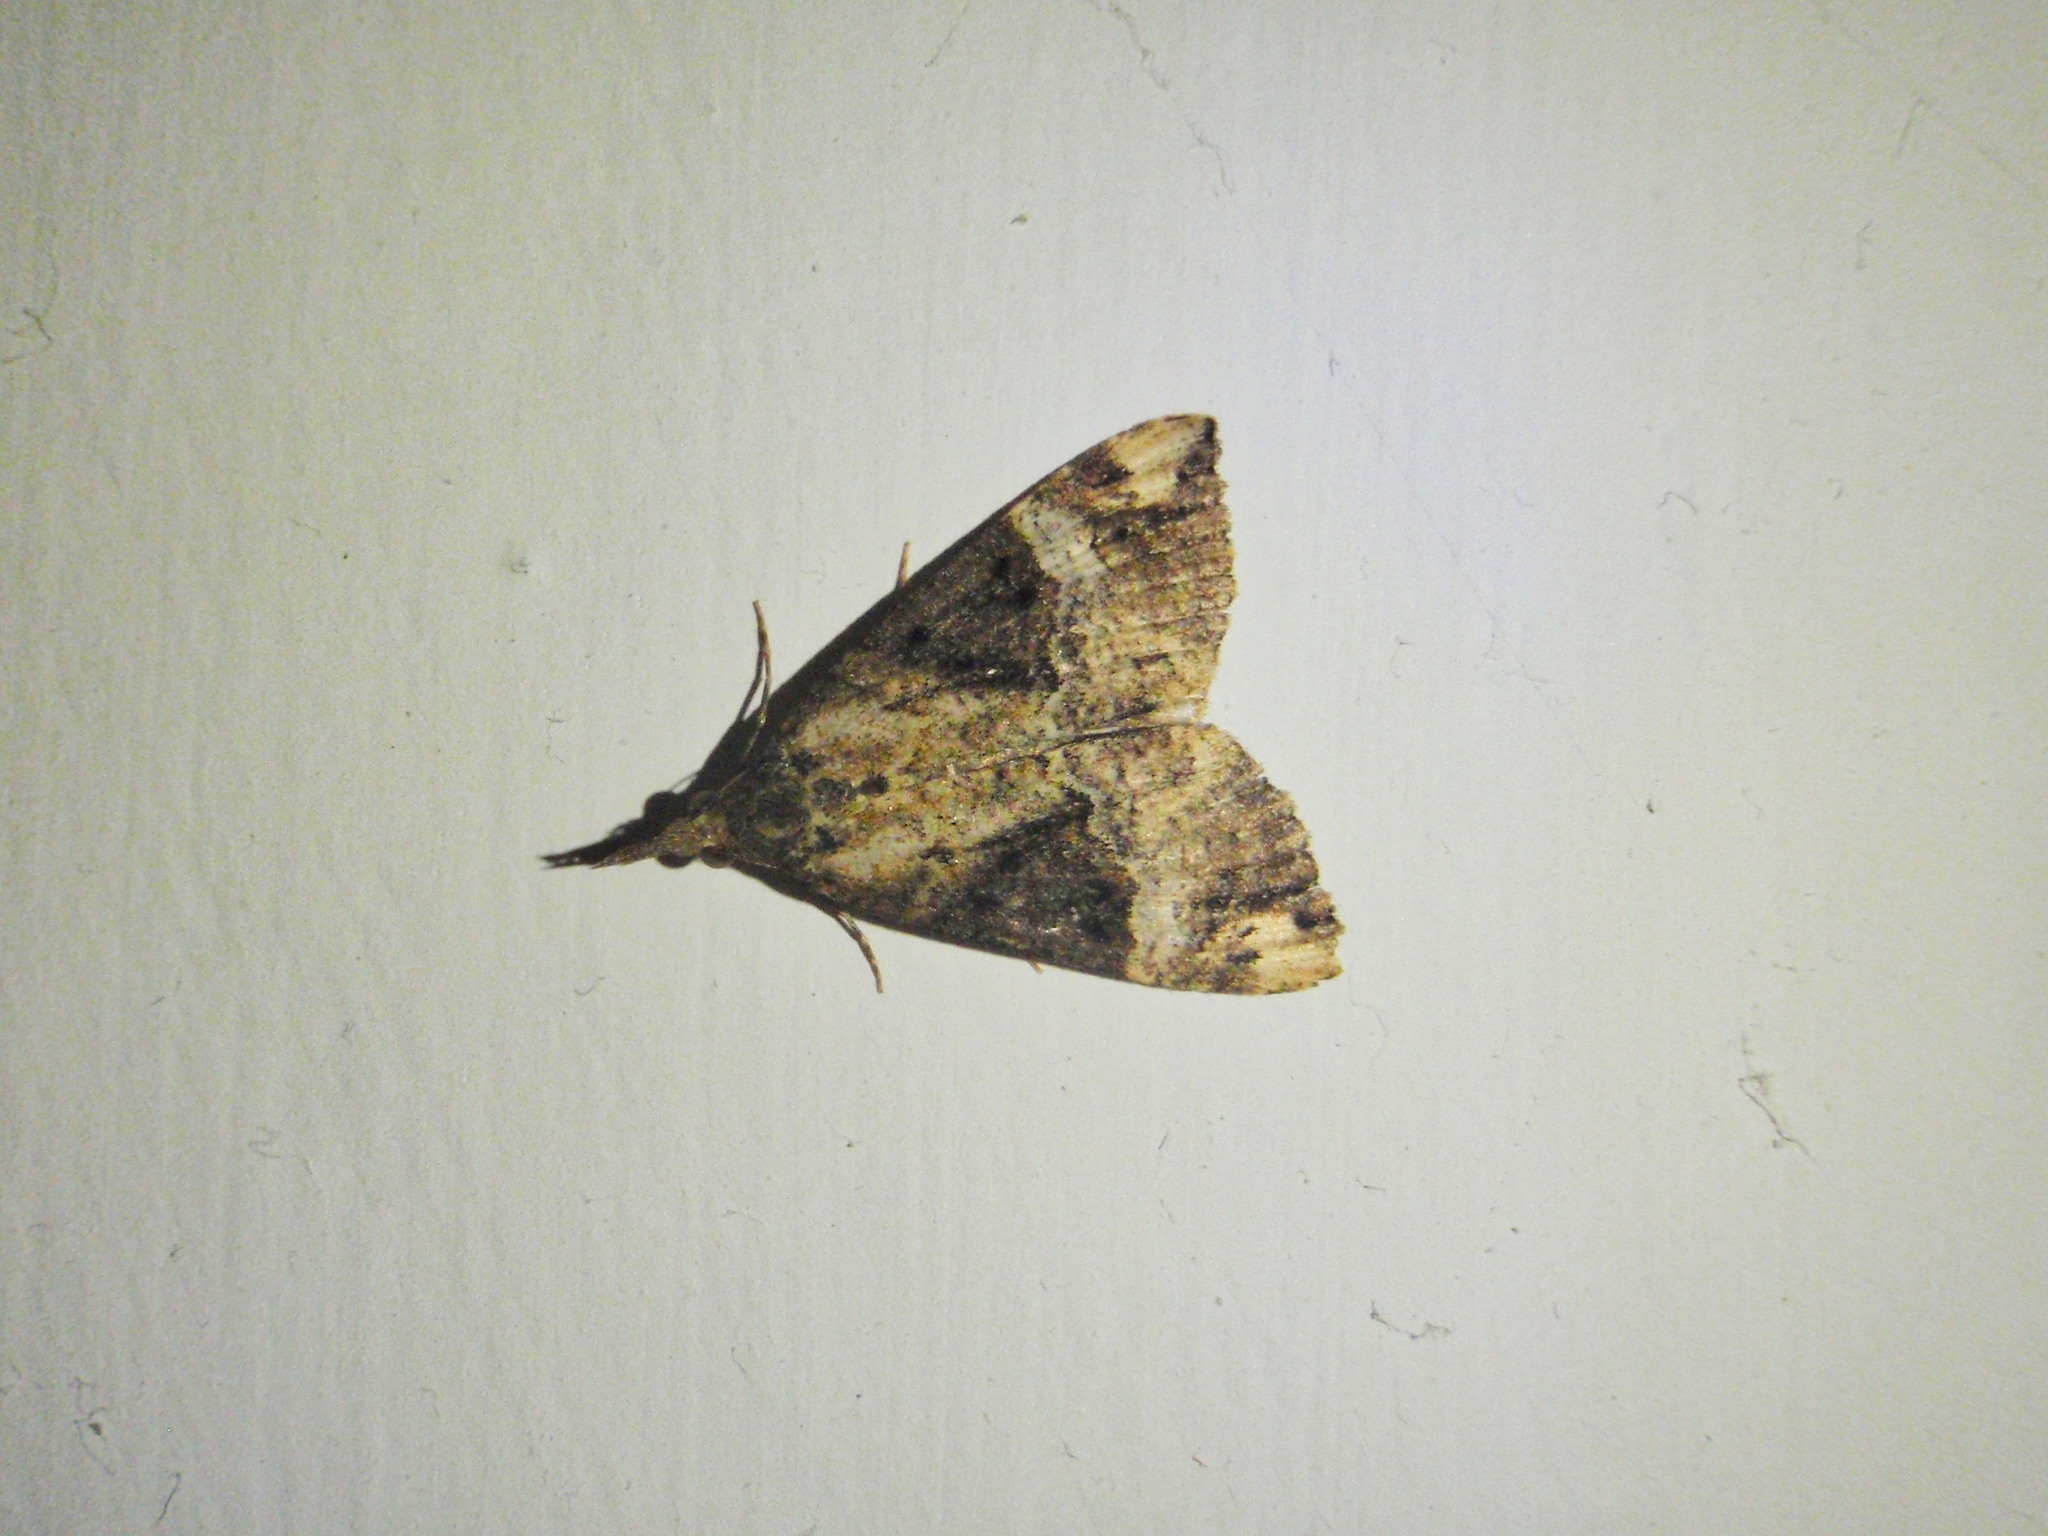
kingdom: Animalia
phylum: Arthropoda
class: Insecta
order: Lepidoptera
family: Erebidae
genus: Hypena
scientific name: Hypena obesalis
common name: Paignton snout
